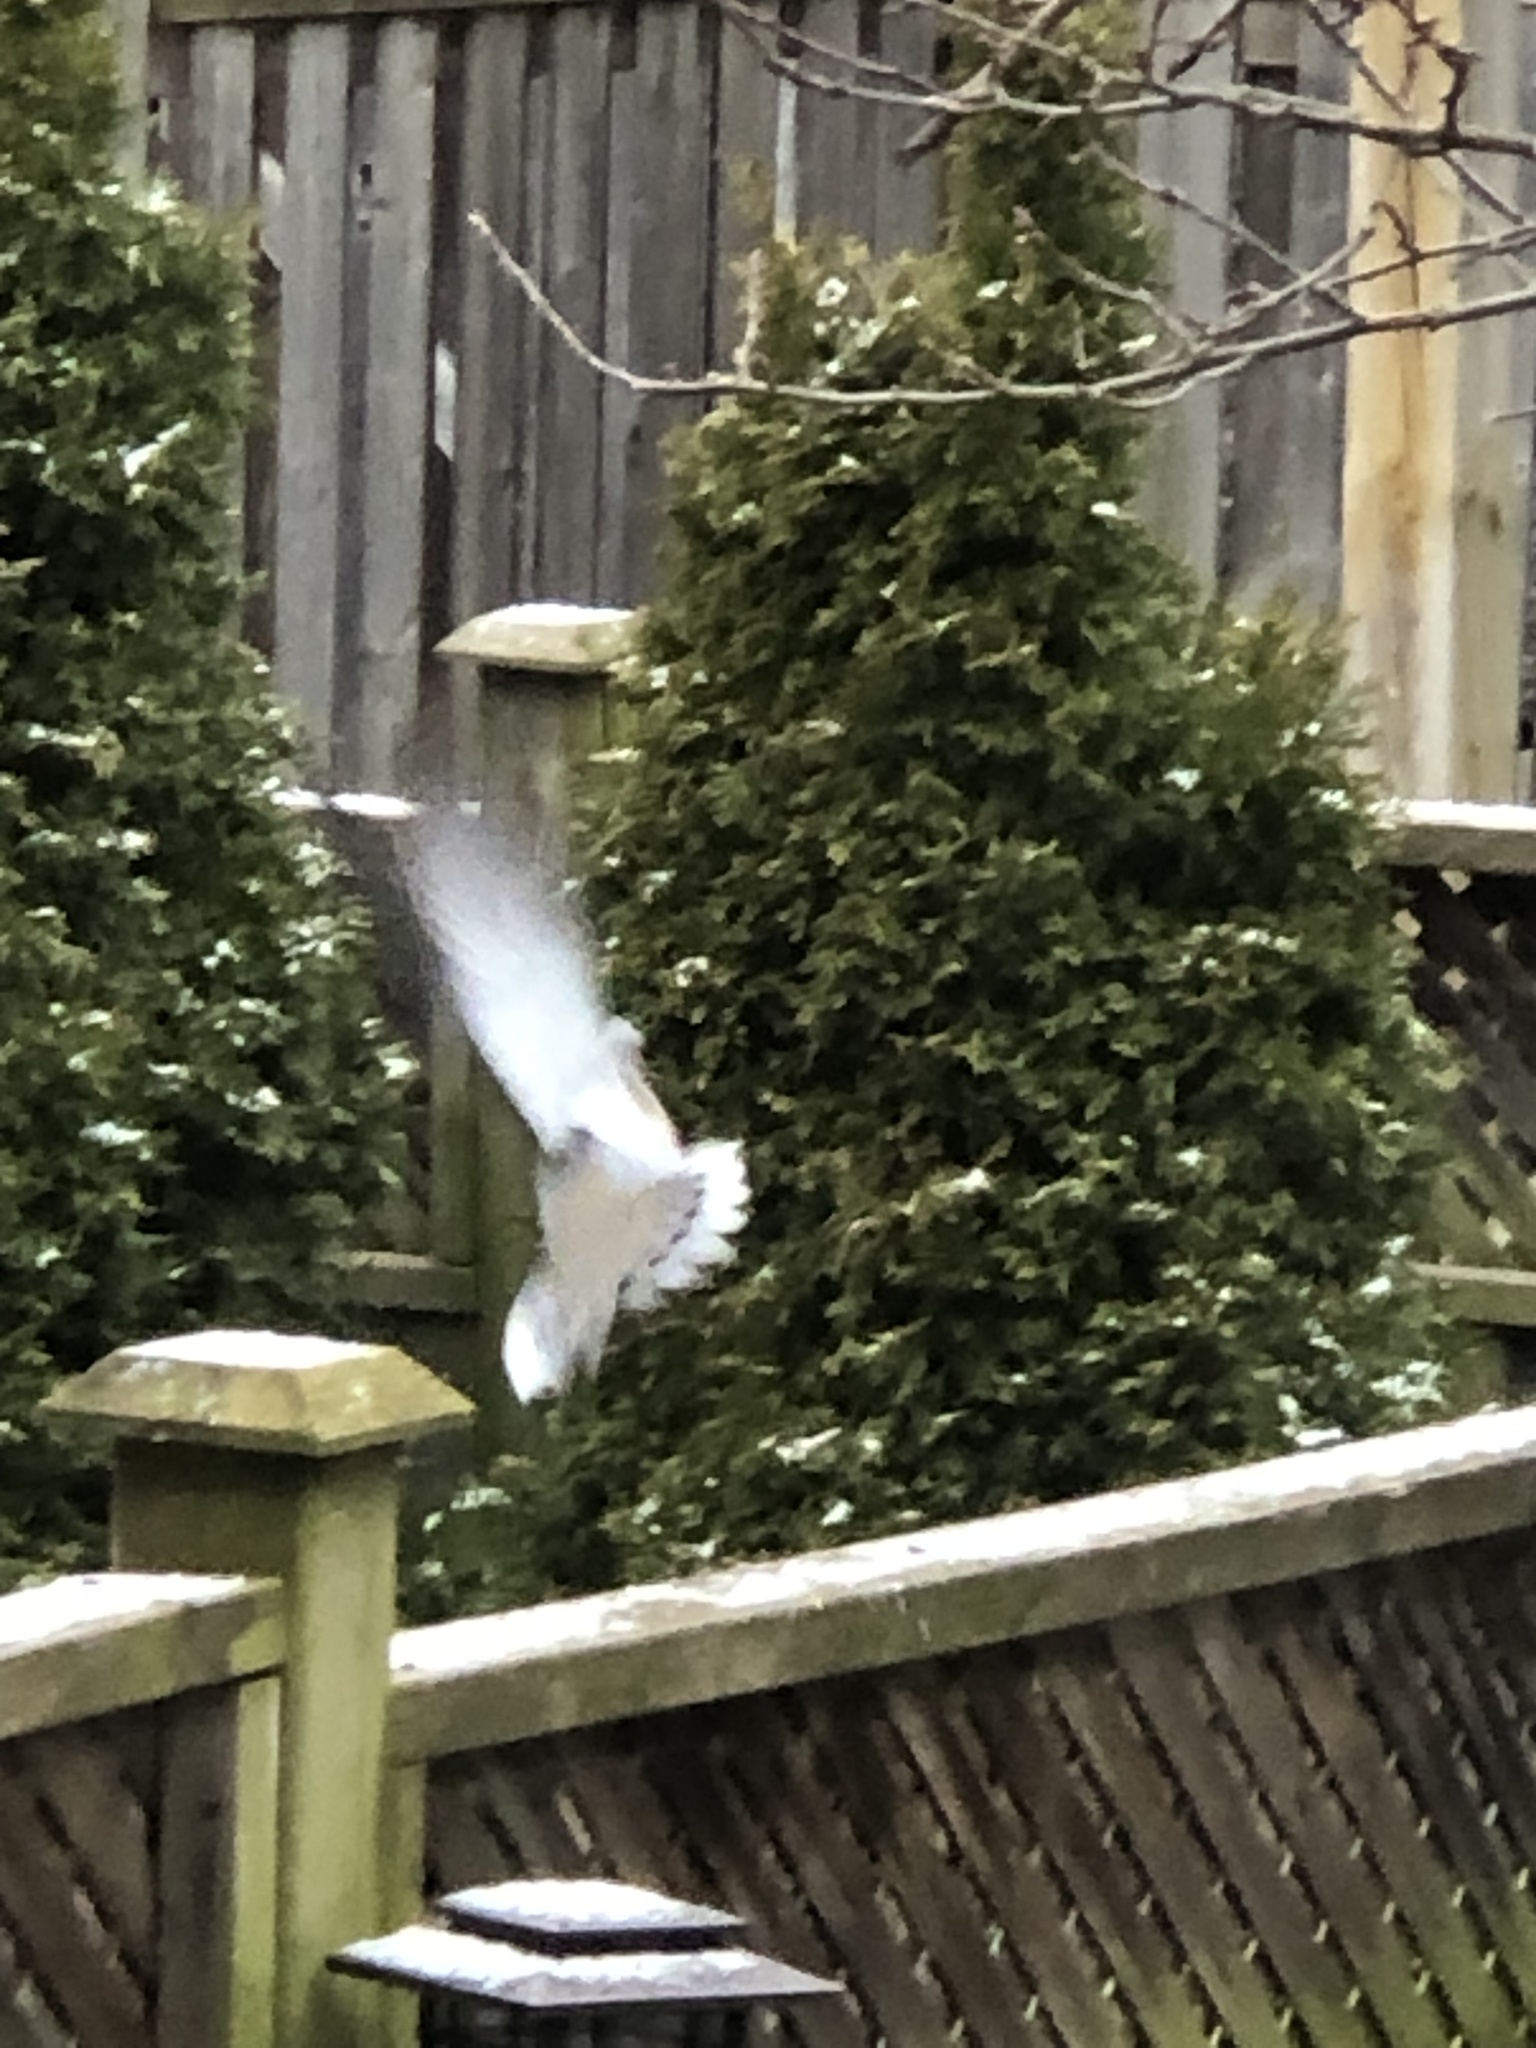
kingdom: Animalia
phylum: Chordata
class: Aves
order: Columbiformes
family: Columbidae
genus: Zenaida
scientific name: Zenaida macroura
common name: Mourning dove
